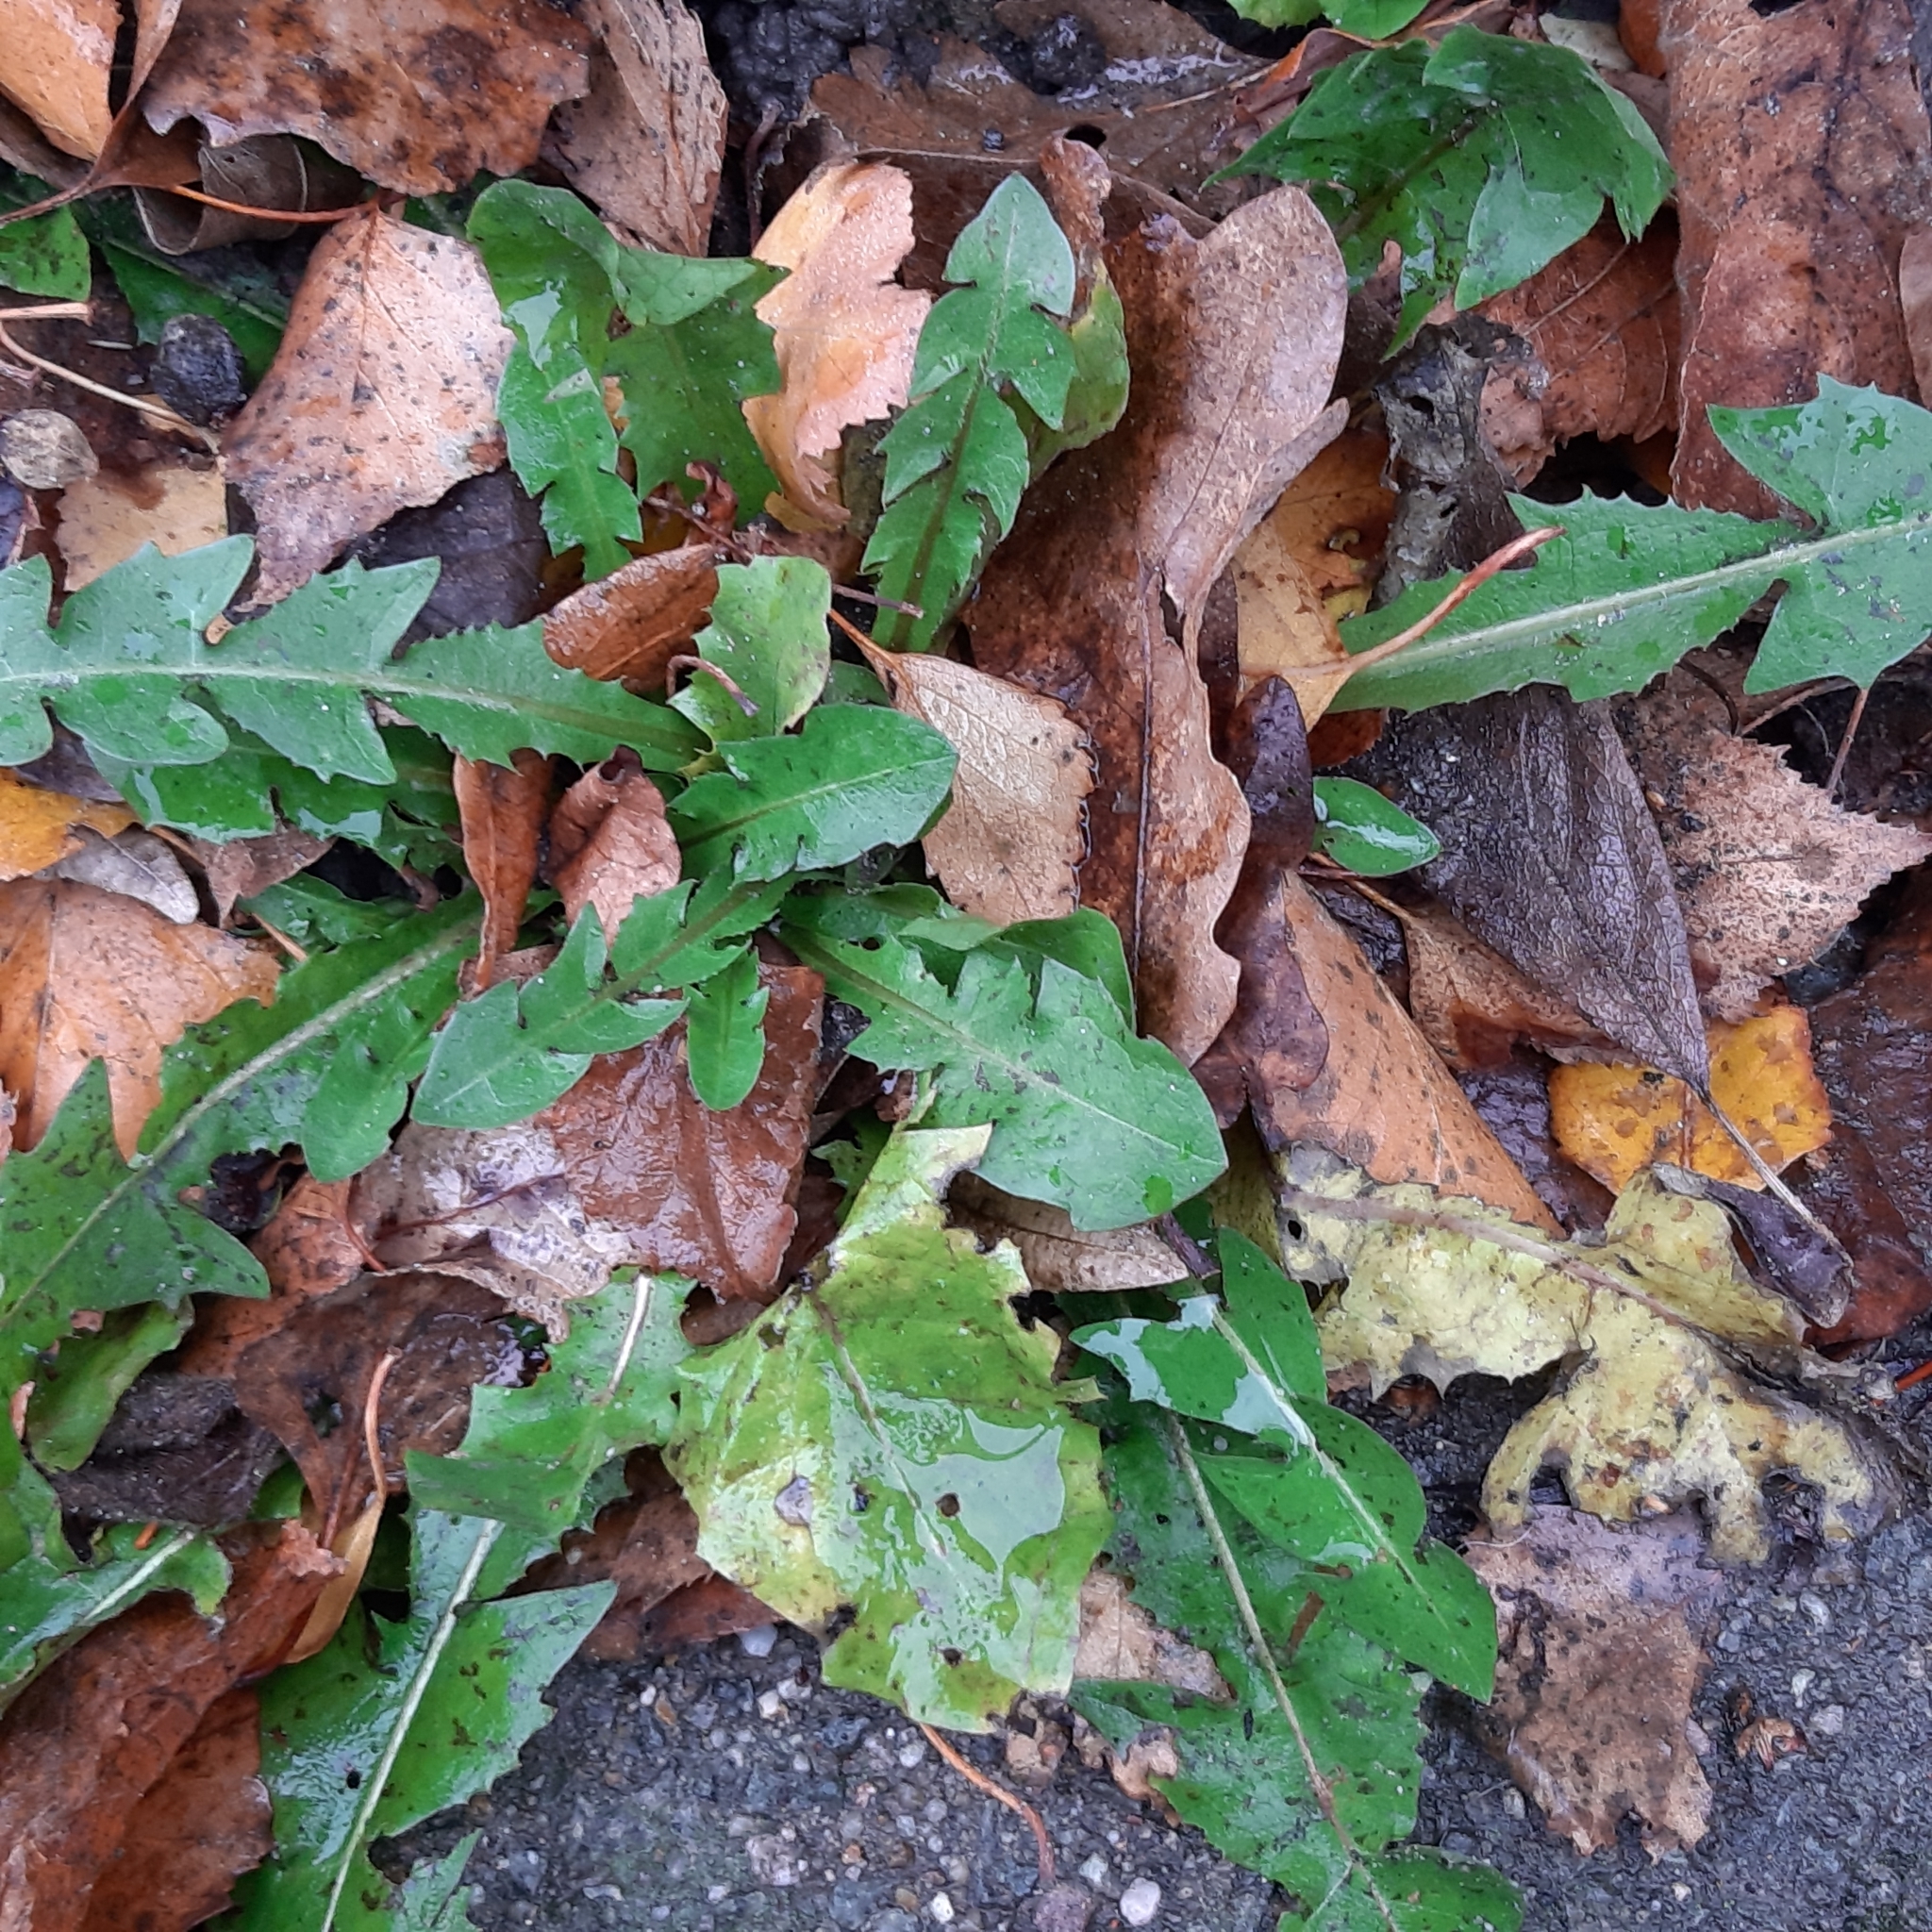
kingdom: Plantae
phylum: Tracheophyta
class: Magnoliopsida
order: Asterales
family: Asteraceae
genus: Taraxacum
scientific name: Taraxacum officinale
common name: Common dandelion
